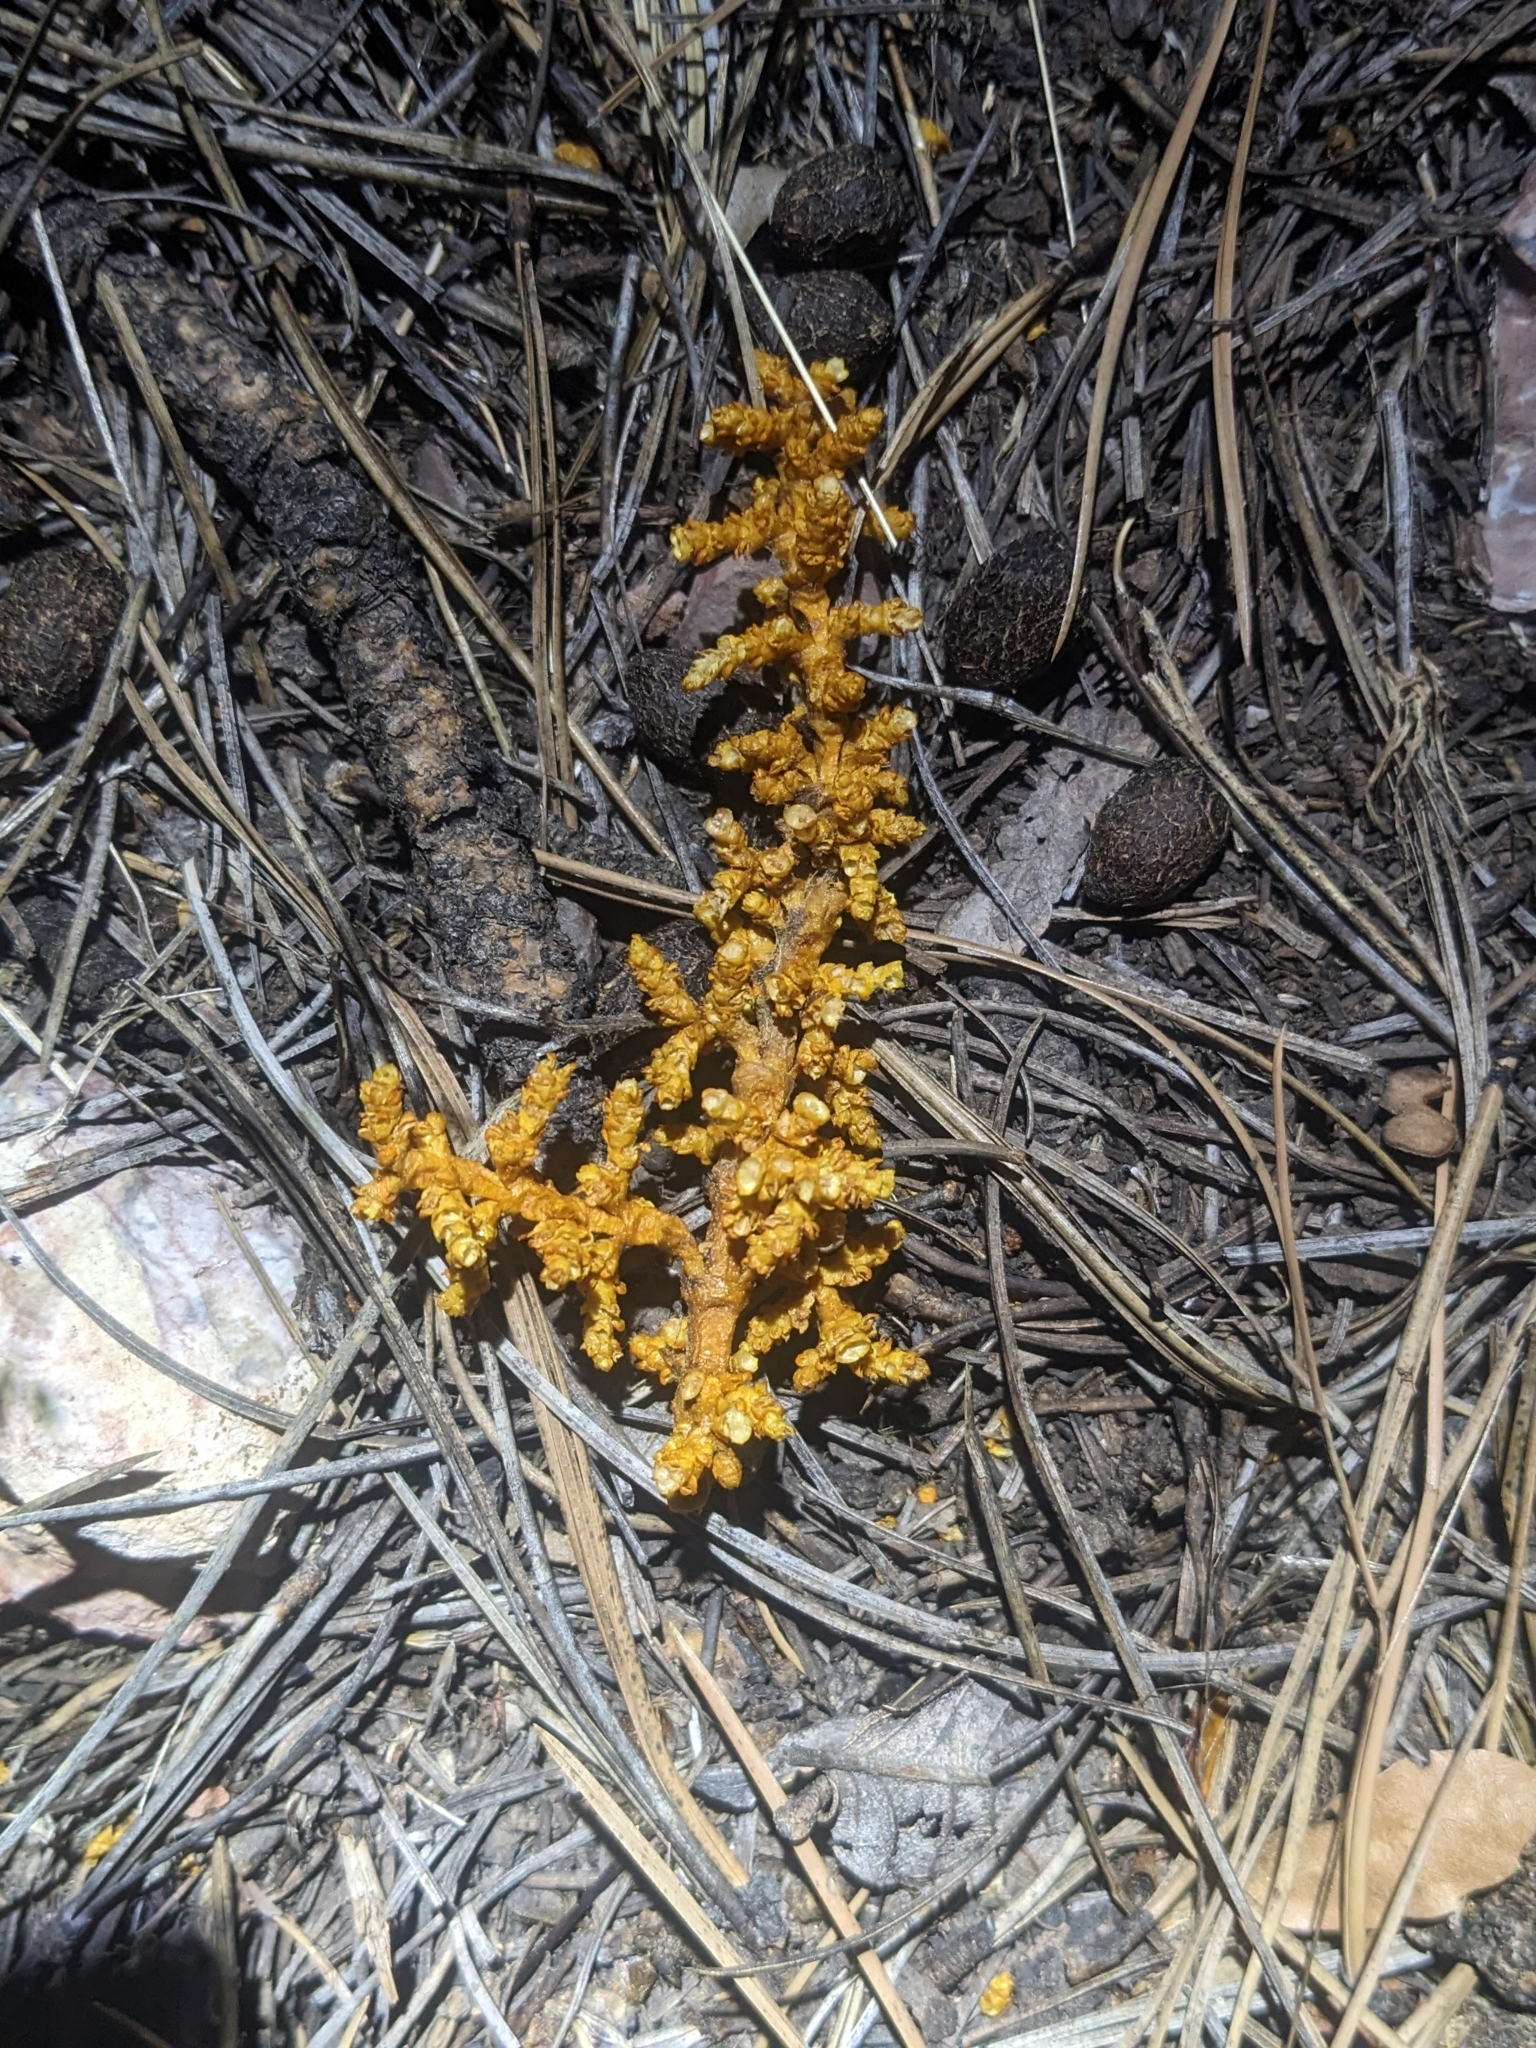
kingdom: Plantae
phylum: Tracheophyta
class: Magnoliopsida
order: Santalales
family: Viscaceae
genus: Arceuthobium
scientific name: Arceuthobium vaginatum
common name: Southwestern dwarf-mistletoe
